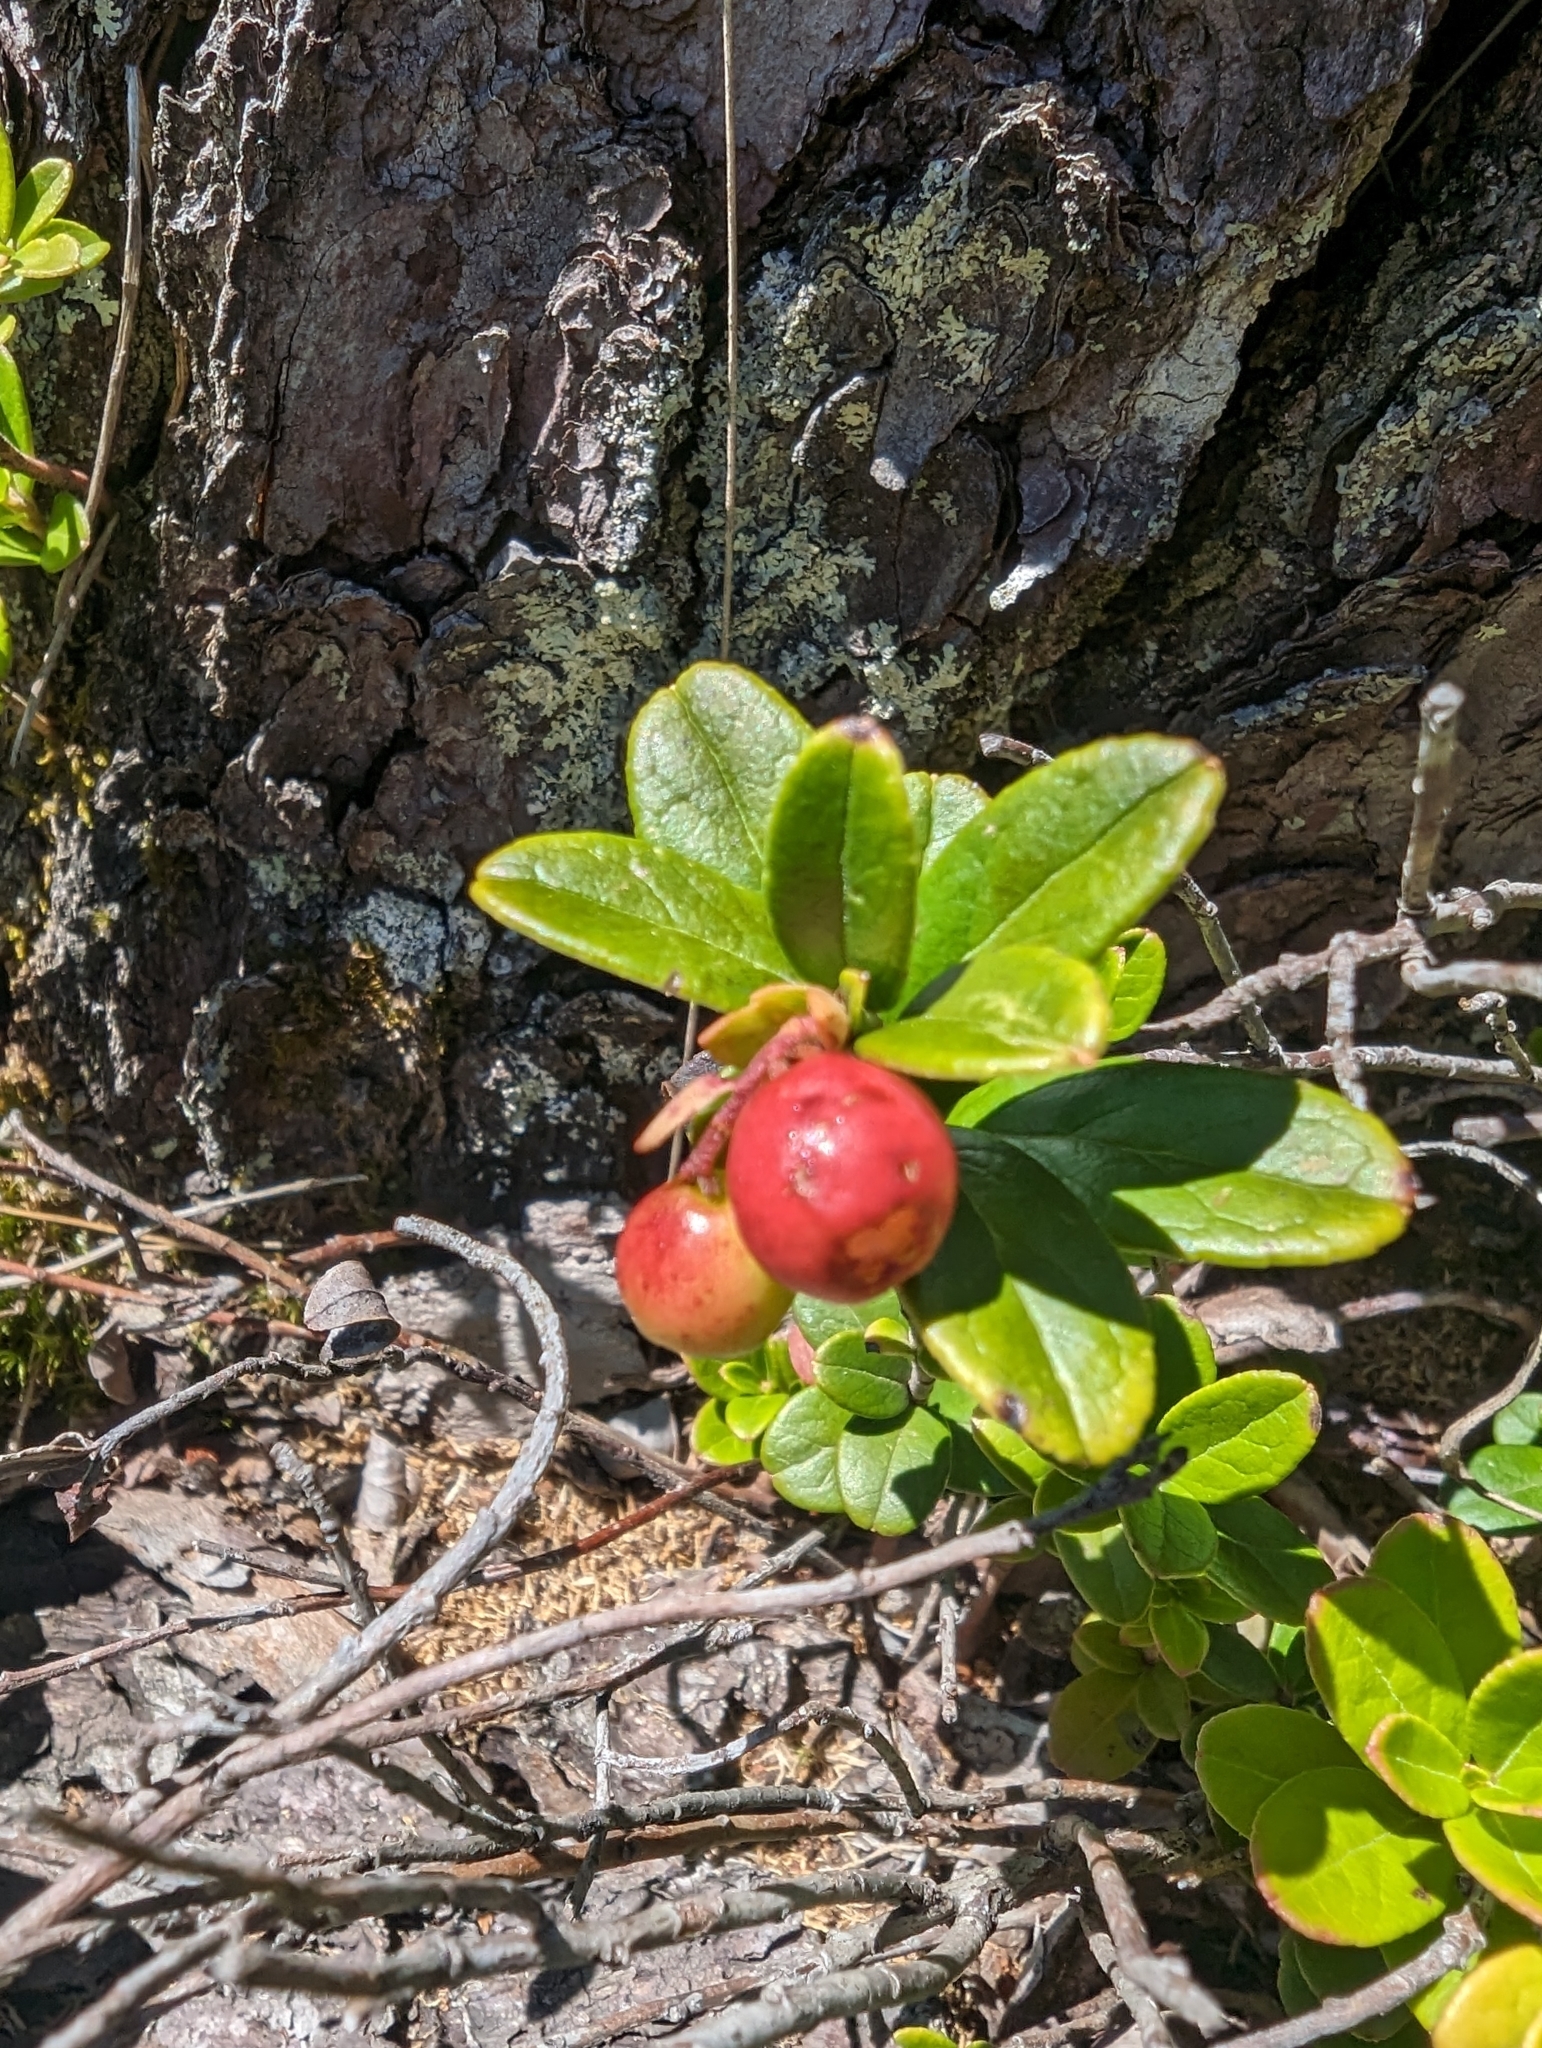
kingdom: Plantae
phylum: Tracheophyta
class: Magnoliopsida
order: Ericales
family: Ericaceae
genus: Vaccinium
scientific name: Vaccinium vitis-idaea
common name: Cowberry
